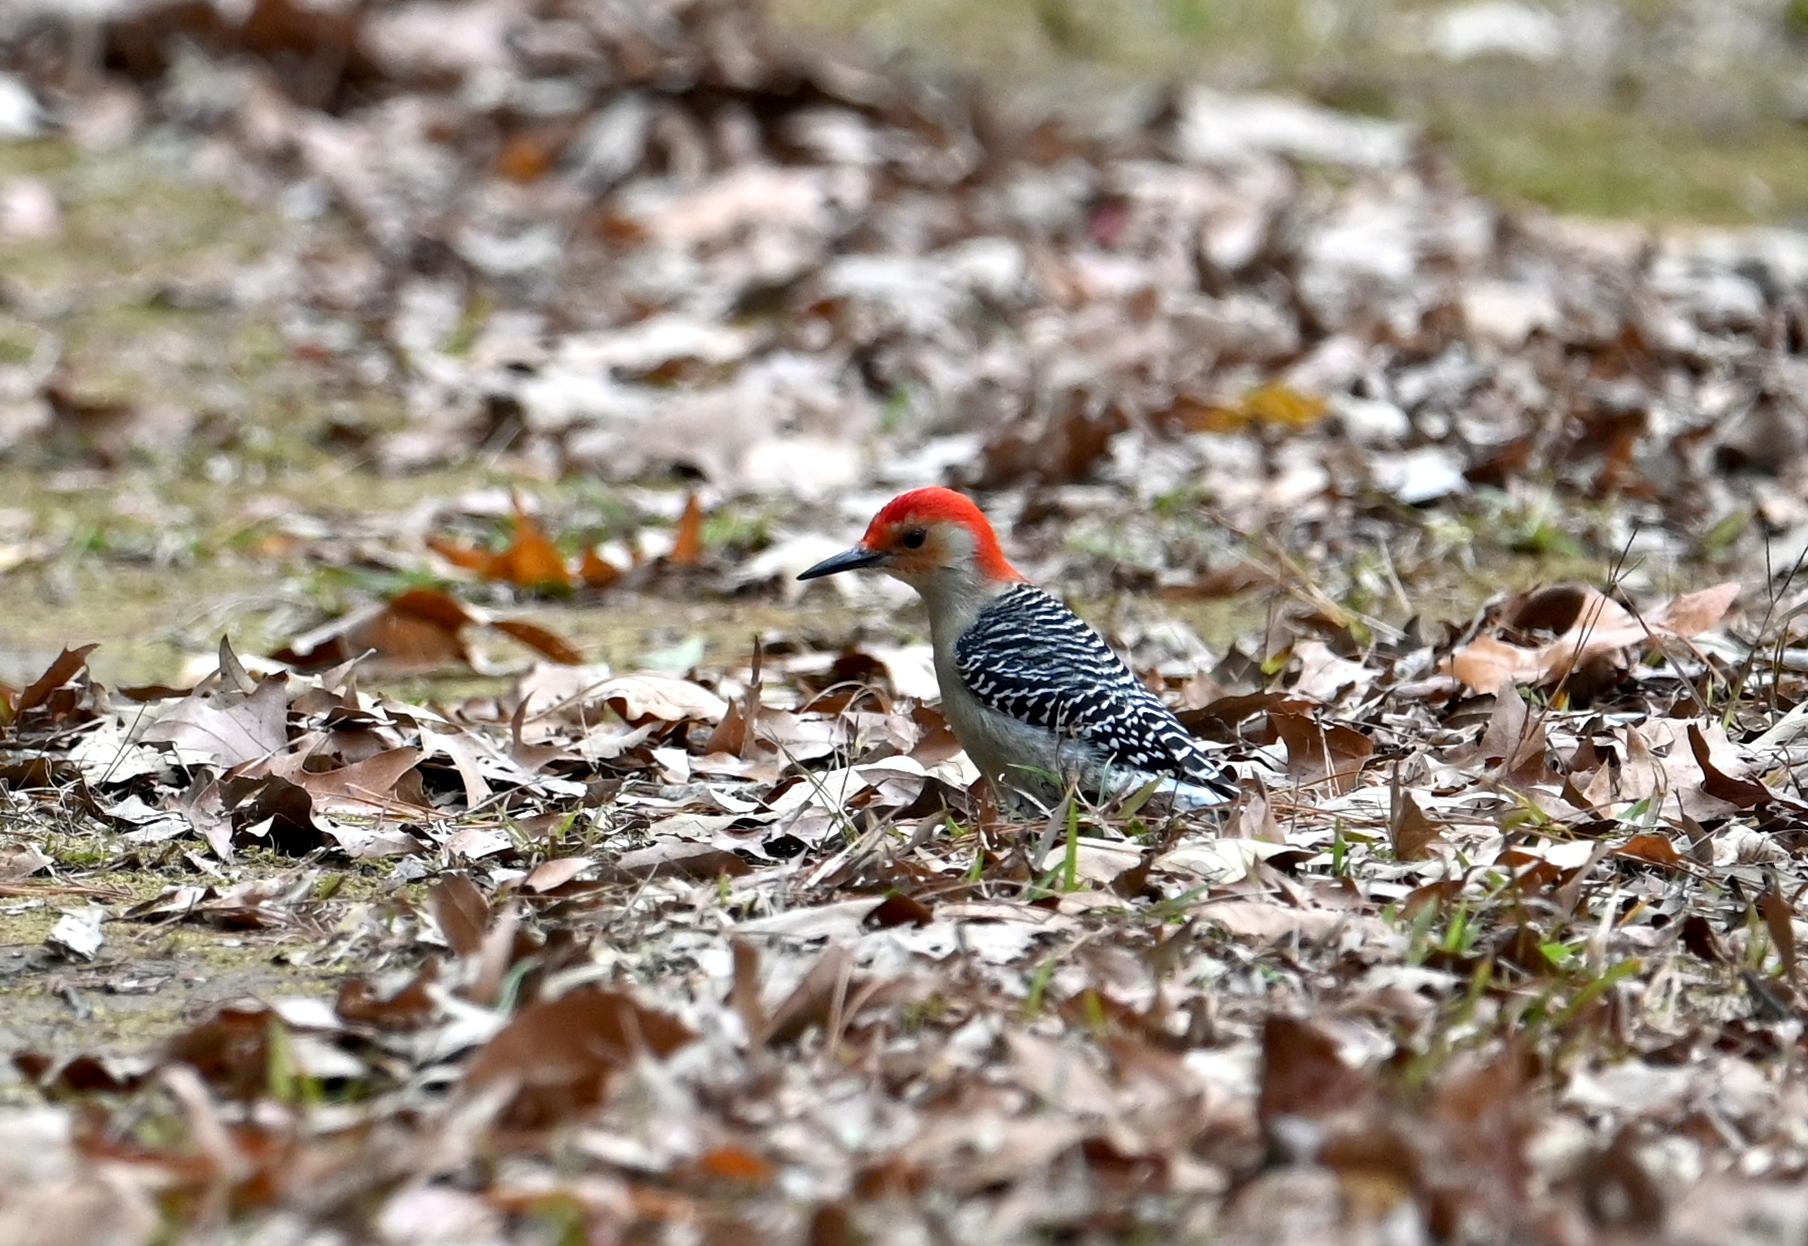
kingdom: Animalia
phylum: Chordata
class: Aves
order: Piciformes
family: Picidae
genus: Melanerpes
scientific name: Melanerpes carolinus
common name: Red-bellied woodpecker
